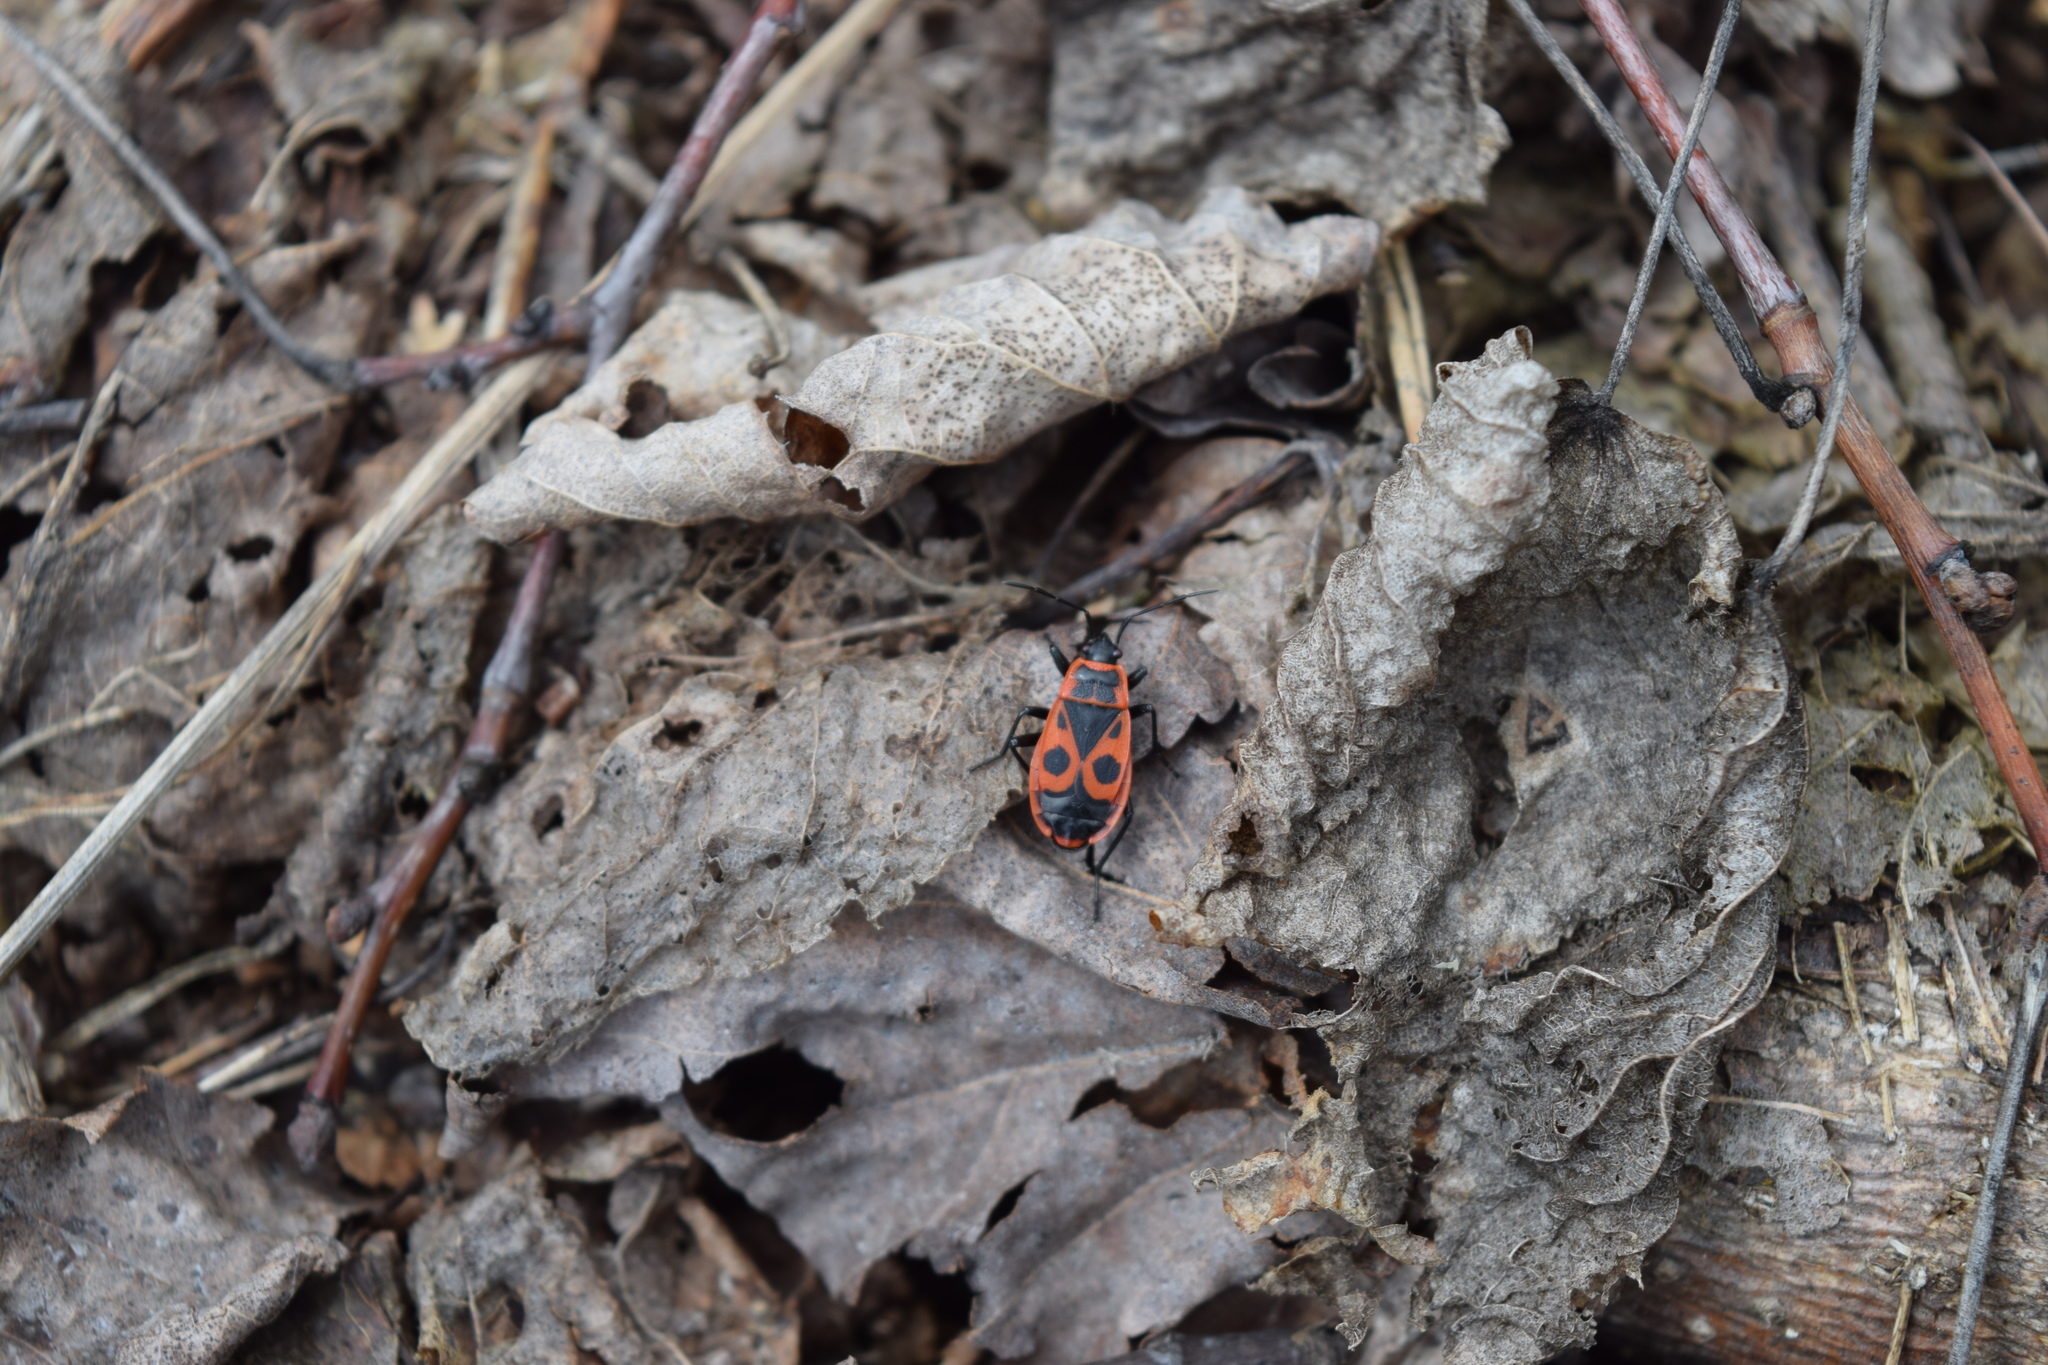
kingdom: Animalia
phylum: Arthropoda
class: Insecta
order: Hemiptera
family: Pyrrhocoridae
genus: Pyrrhocoris
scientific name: Pyrrhocoris apterus
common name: Firebug
